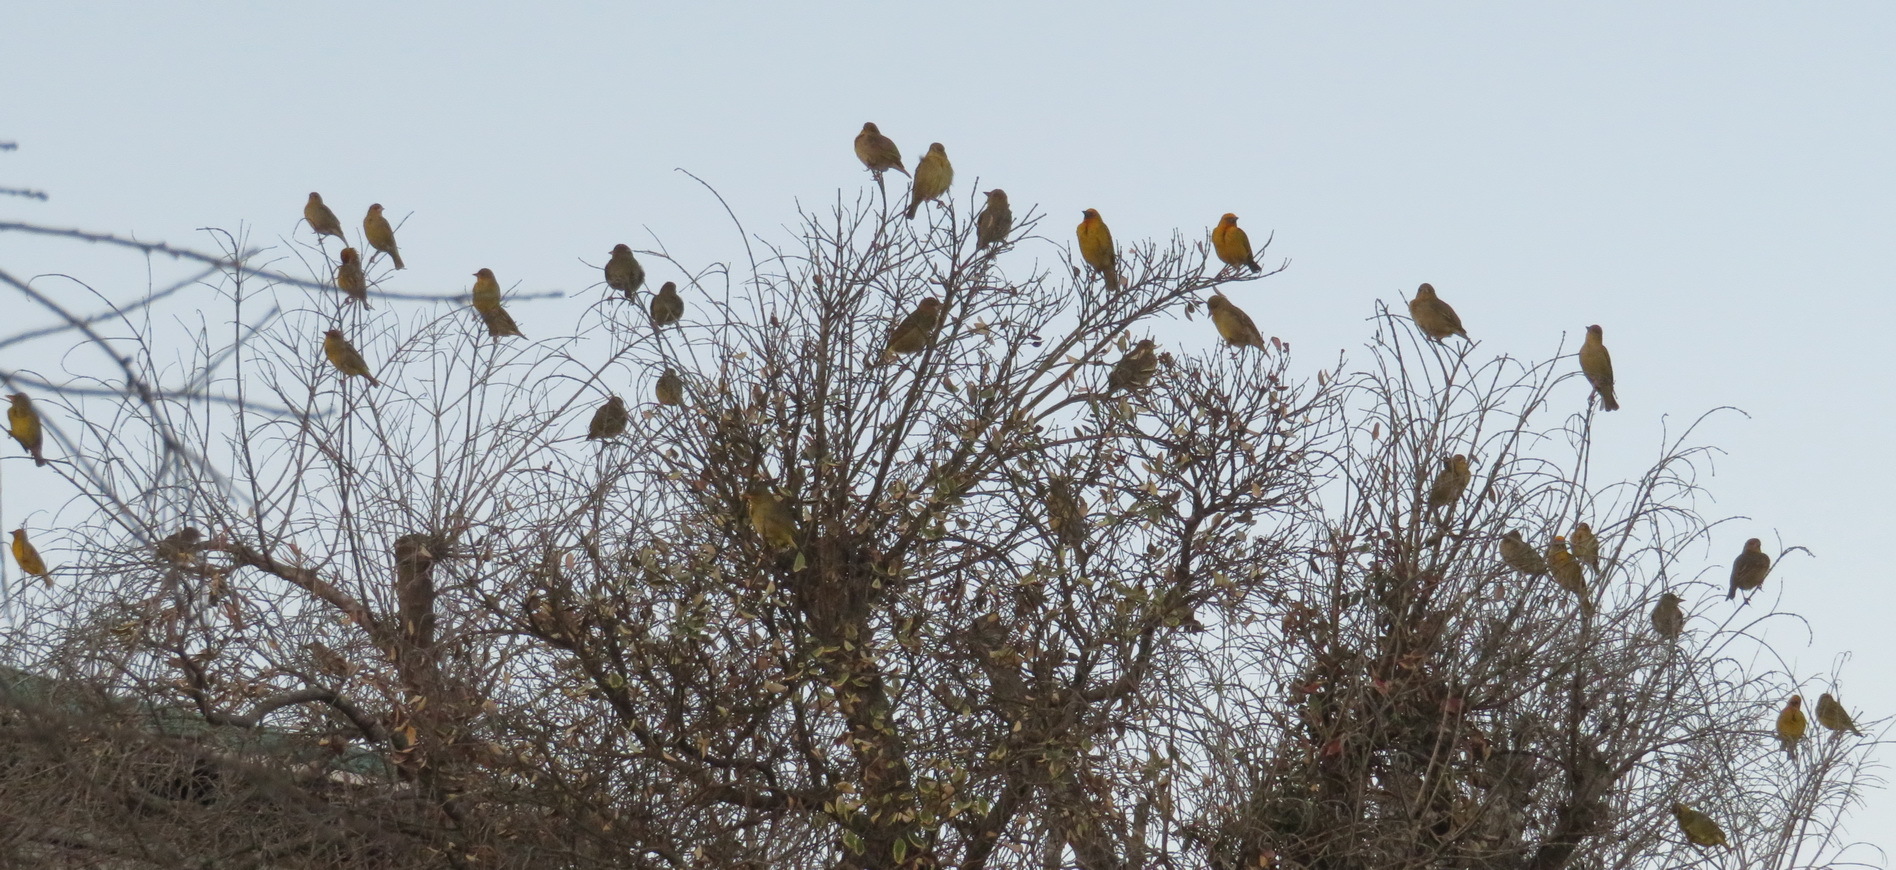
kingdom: Animalia
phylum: Chordata
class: Aves
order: Passeriformes
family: Ploceidae
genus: Ploceus
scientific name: Ploceus capensis
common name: Cape weaver
